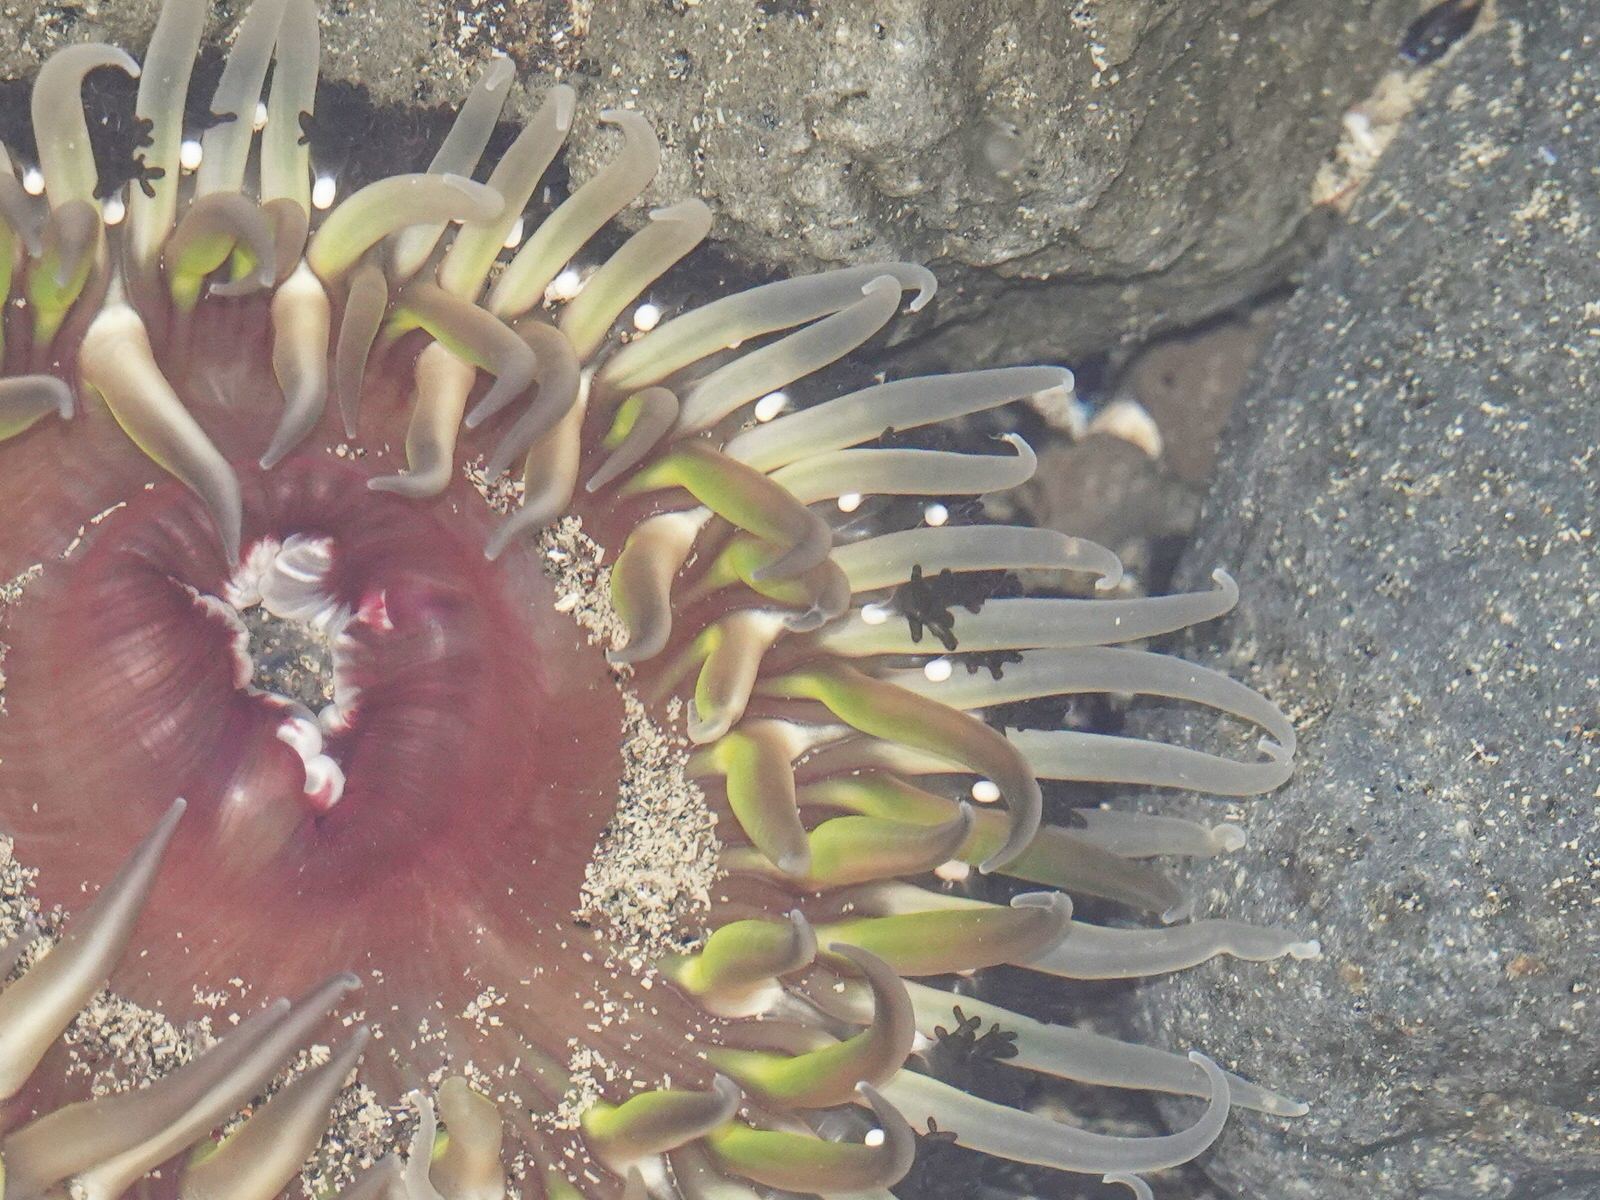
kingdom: Animalia
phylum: Cnidaria
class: Anthozoa
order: Actiniaria
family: Actiniidae
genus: Oulactis
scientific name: Oulactis magna
